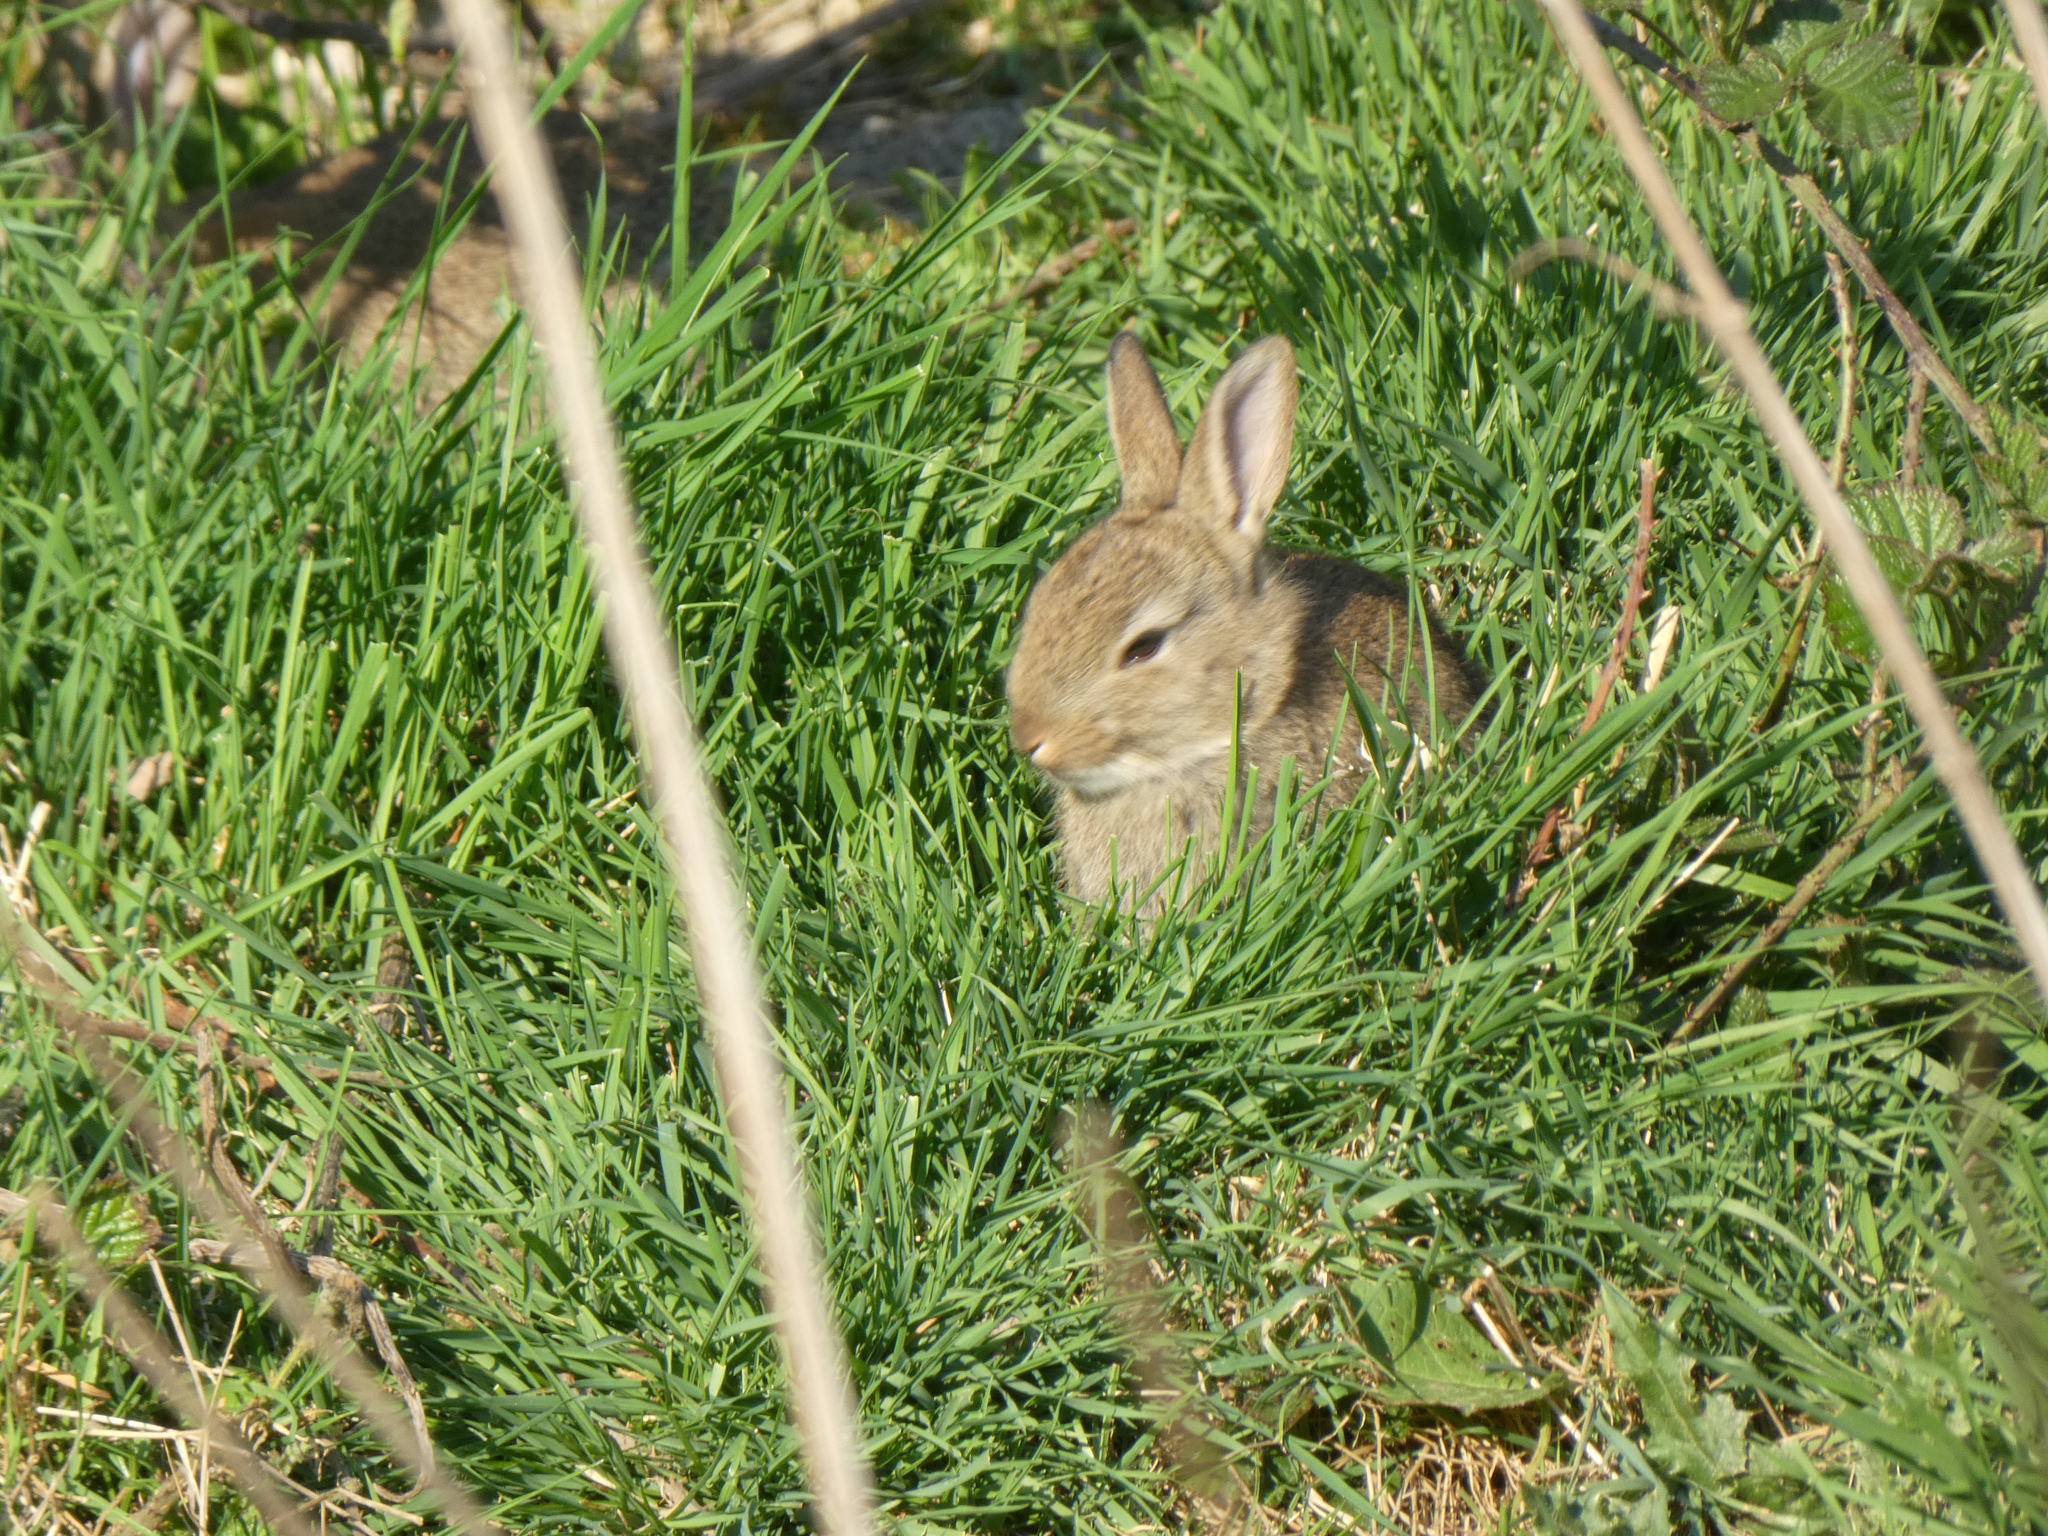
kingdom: Animalia
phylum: Chordata
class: Mammalia
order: Lagomorpha
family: Leporidae
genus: Oryctolagus
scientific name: Oryctolagus cuniculus
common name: European rabbit
